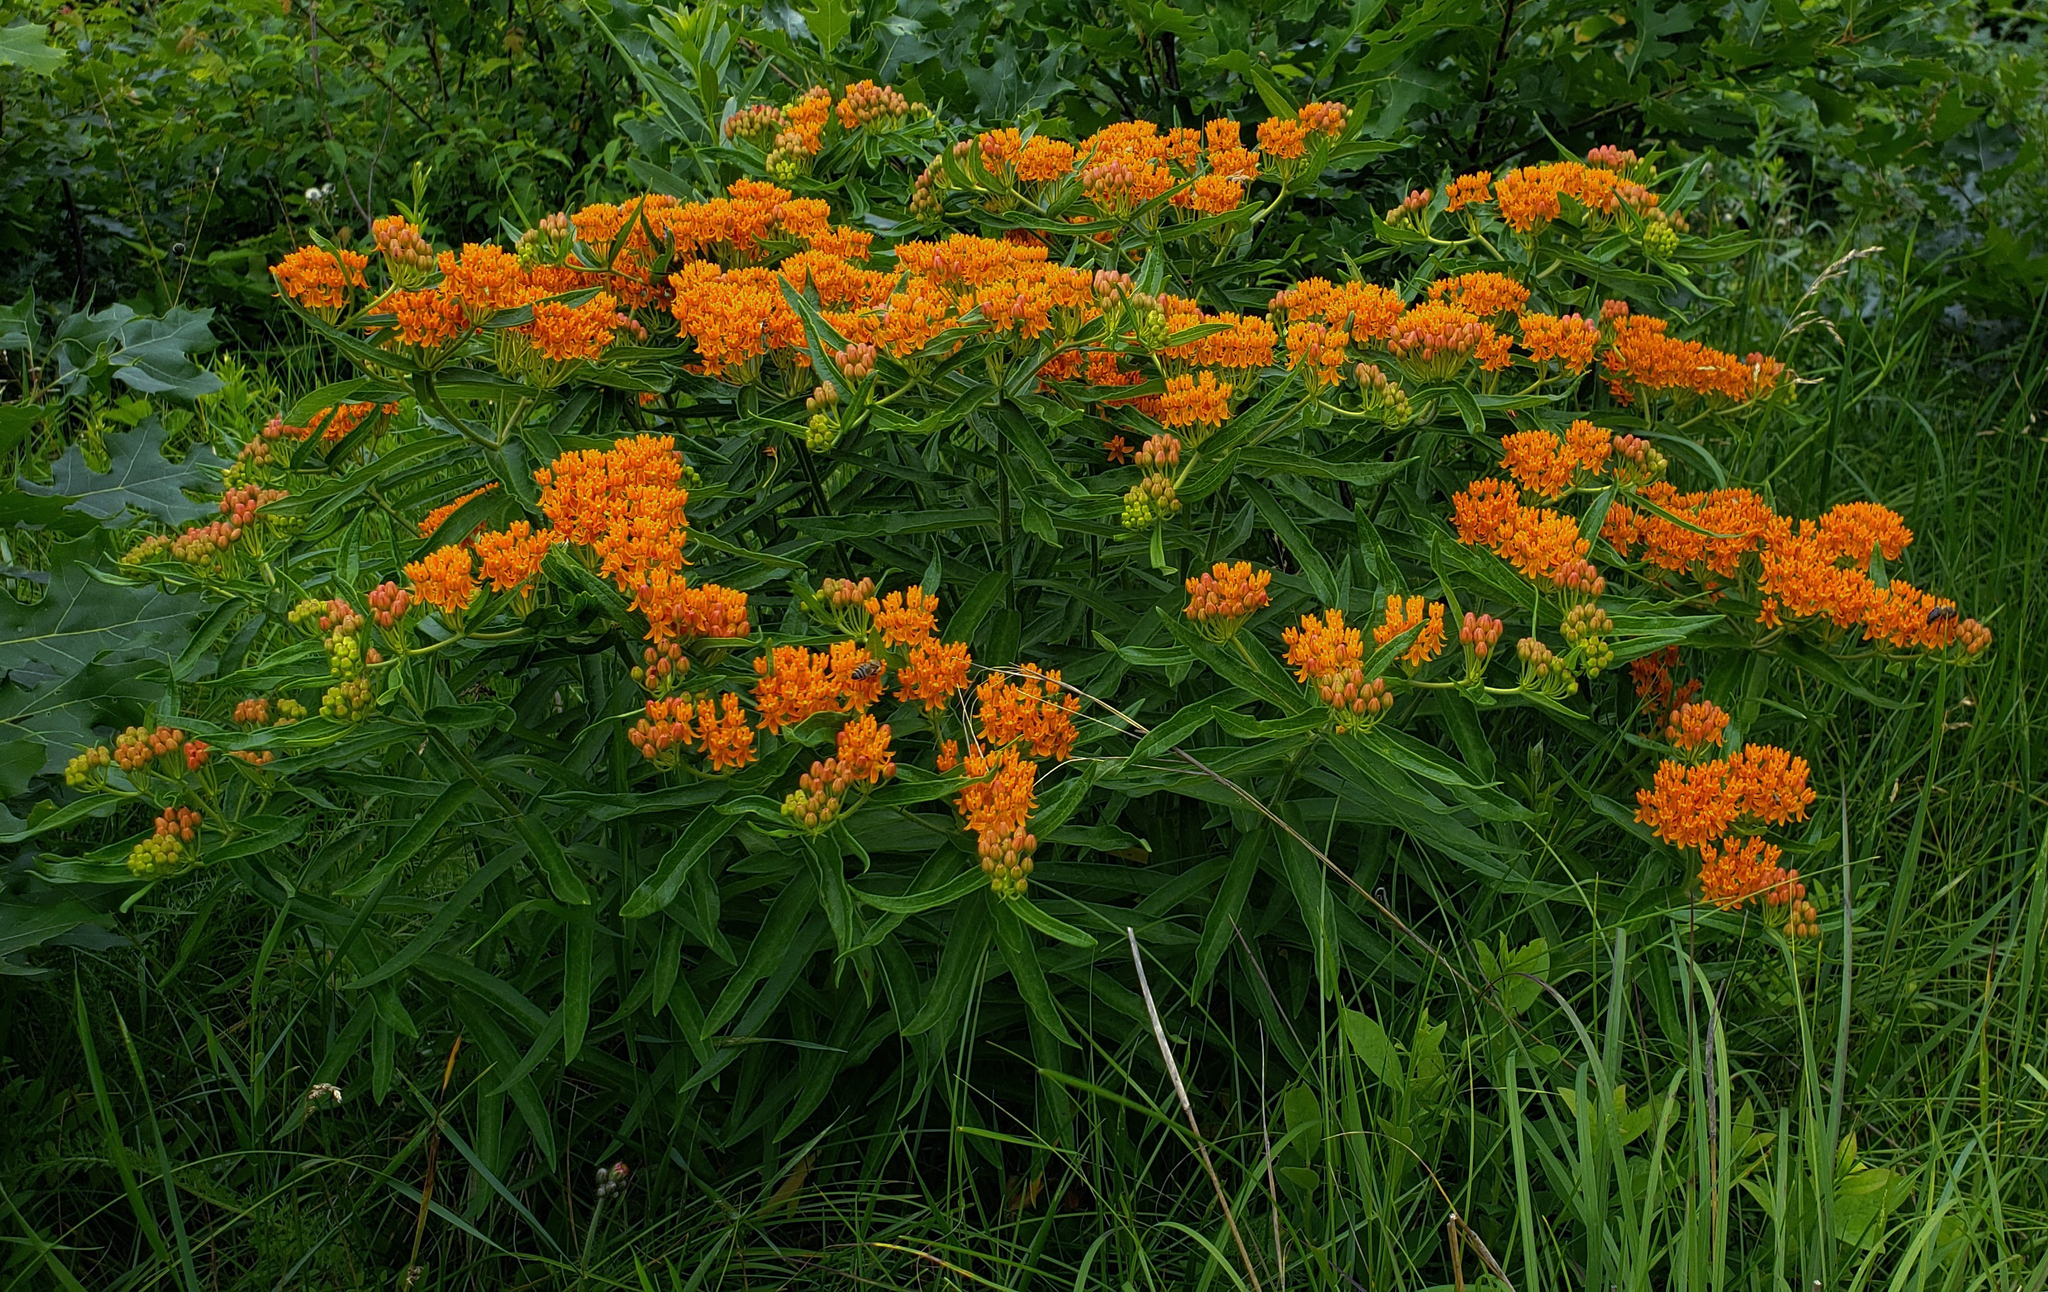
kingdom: Plantae
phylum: Tracheophyta
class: Magnoliopsida
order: Gentianales
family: Apocynaceae
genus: Asclepias
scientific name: Asclepias tuberosa
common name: Butterfly milkweed
